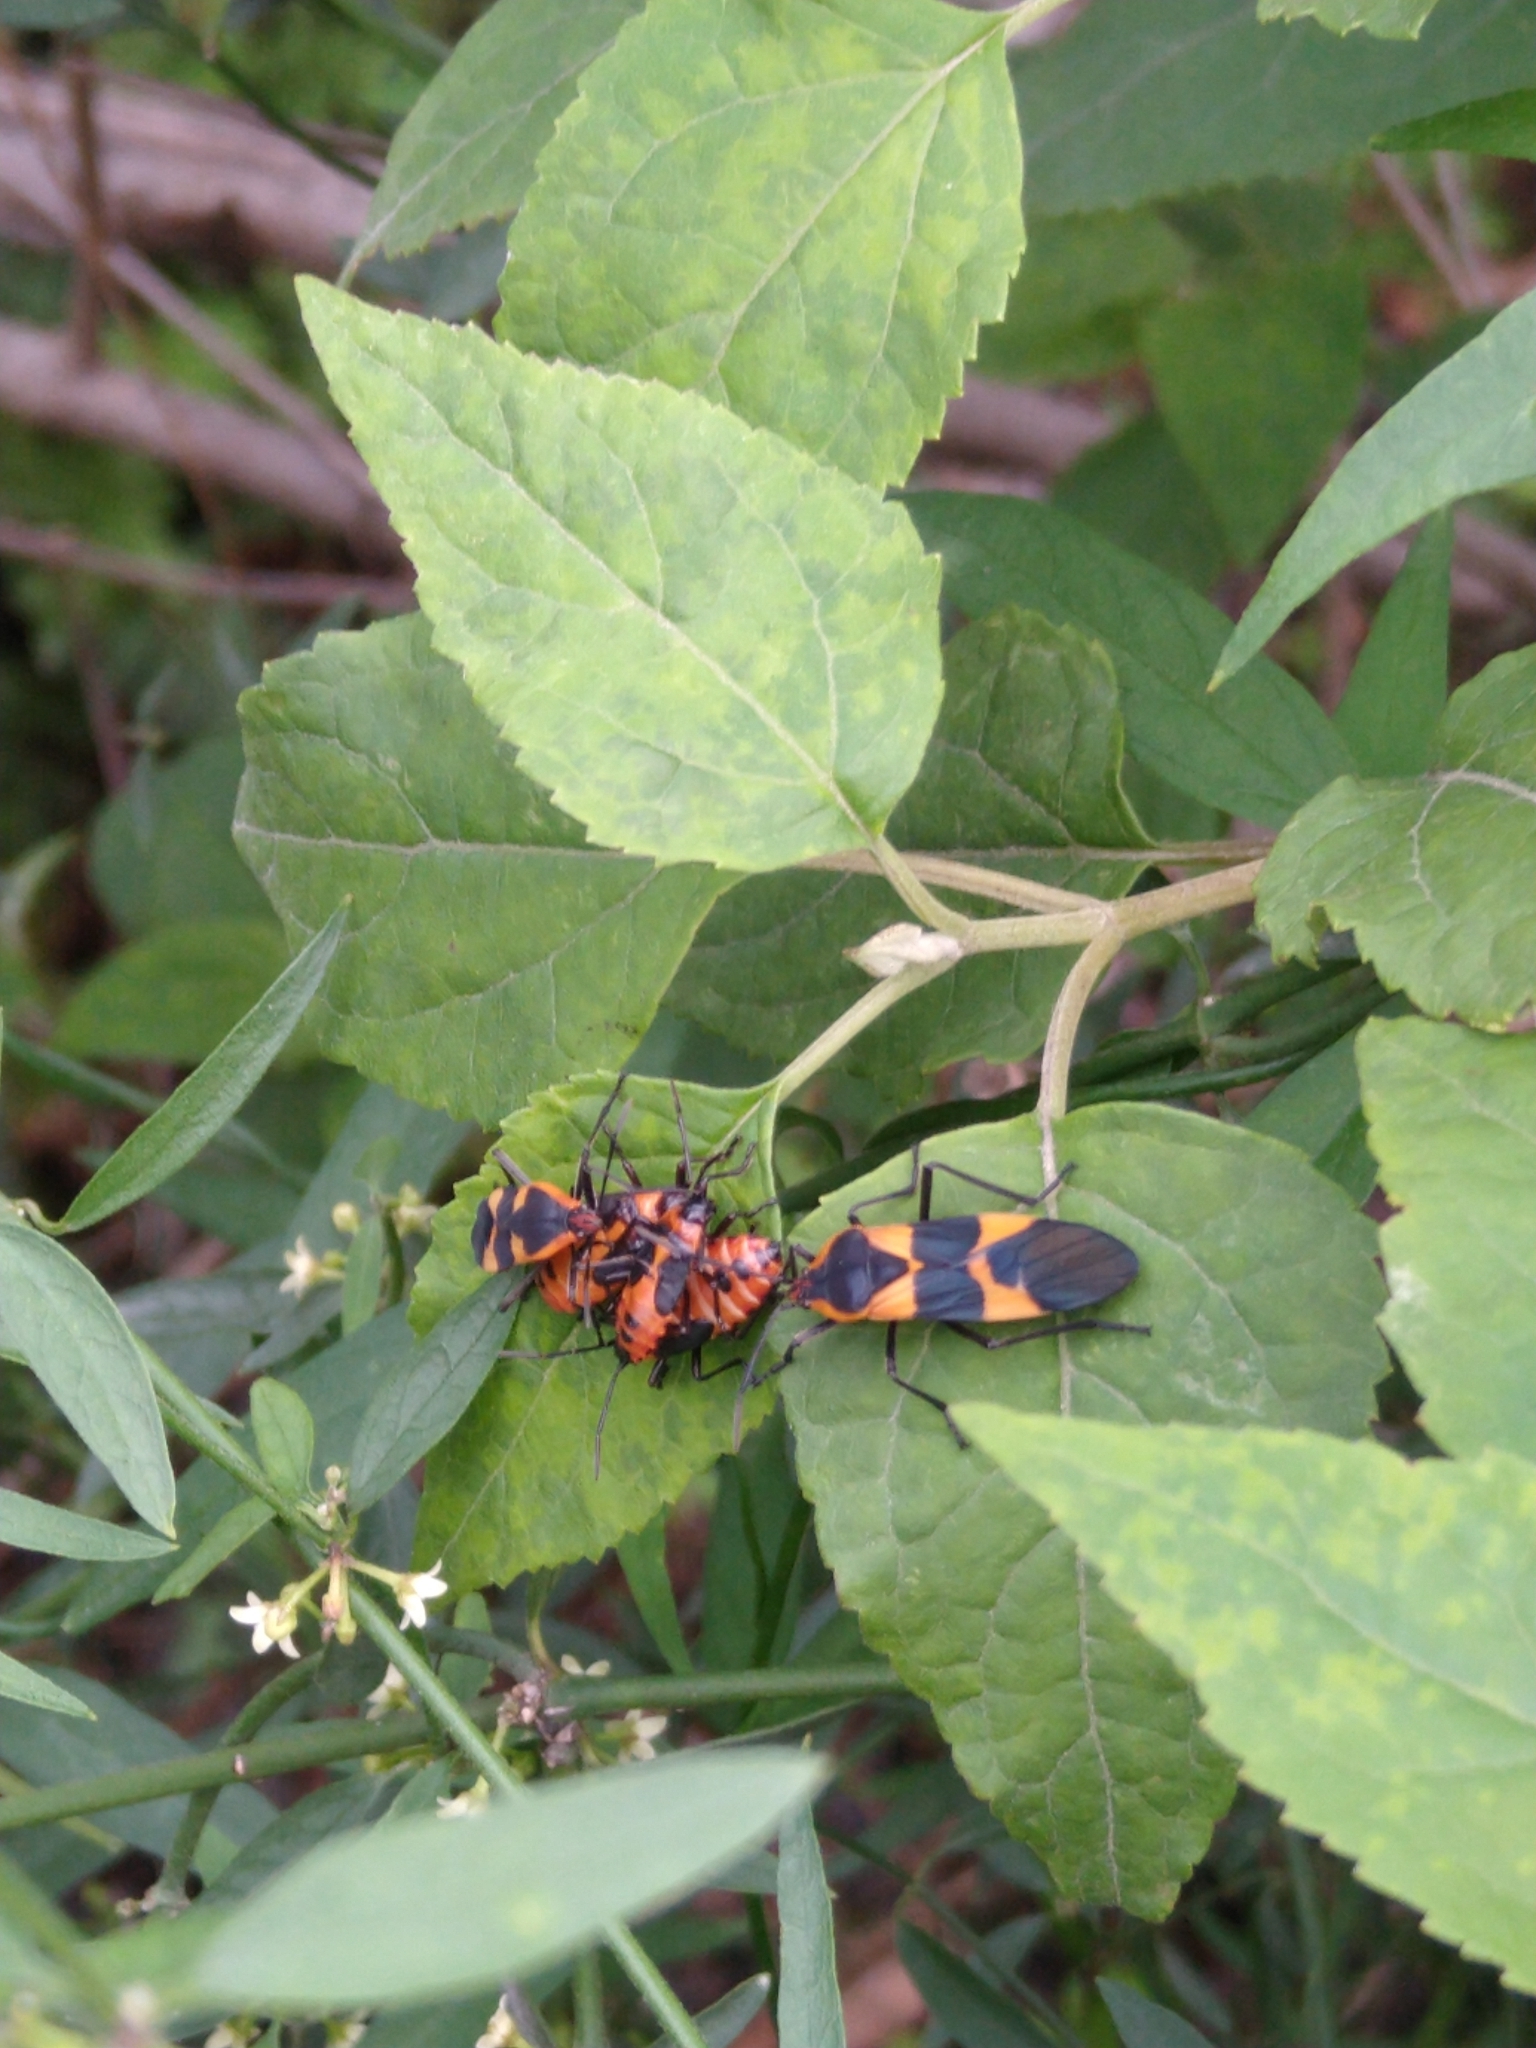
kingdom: Animalia
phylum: Arthropoda
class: Insecta
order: Hemiptera
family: Lygaeidae
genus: Oncopeltus
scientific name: Oncopeltus fasciatus
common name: Large milkweed bug
